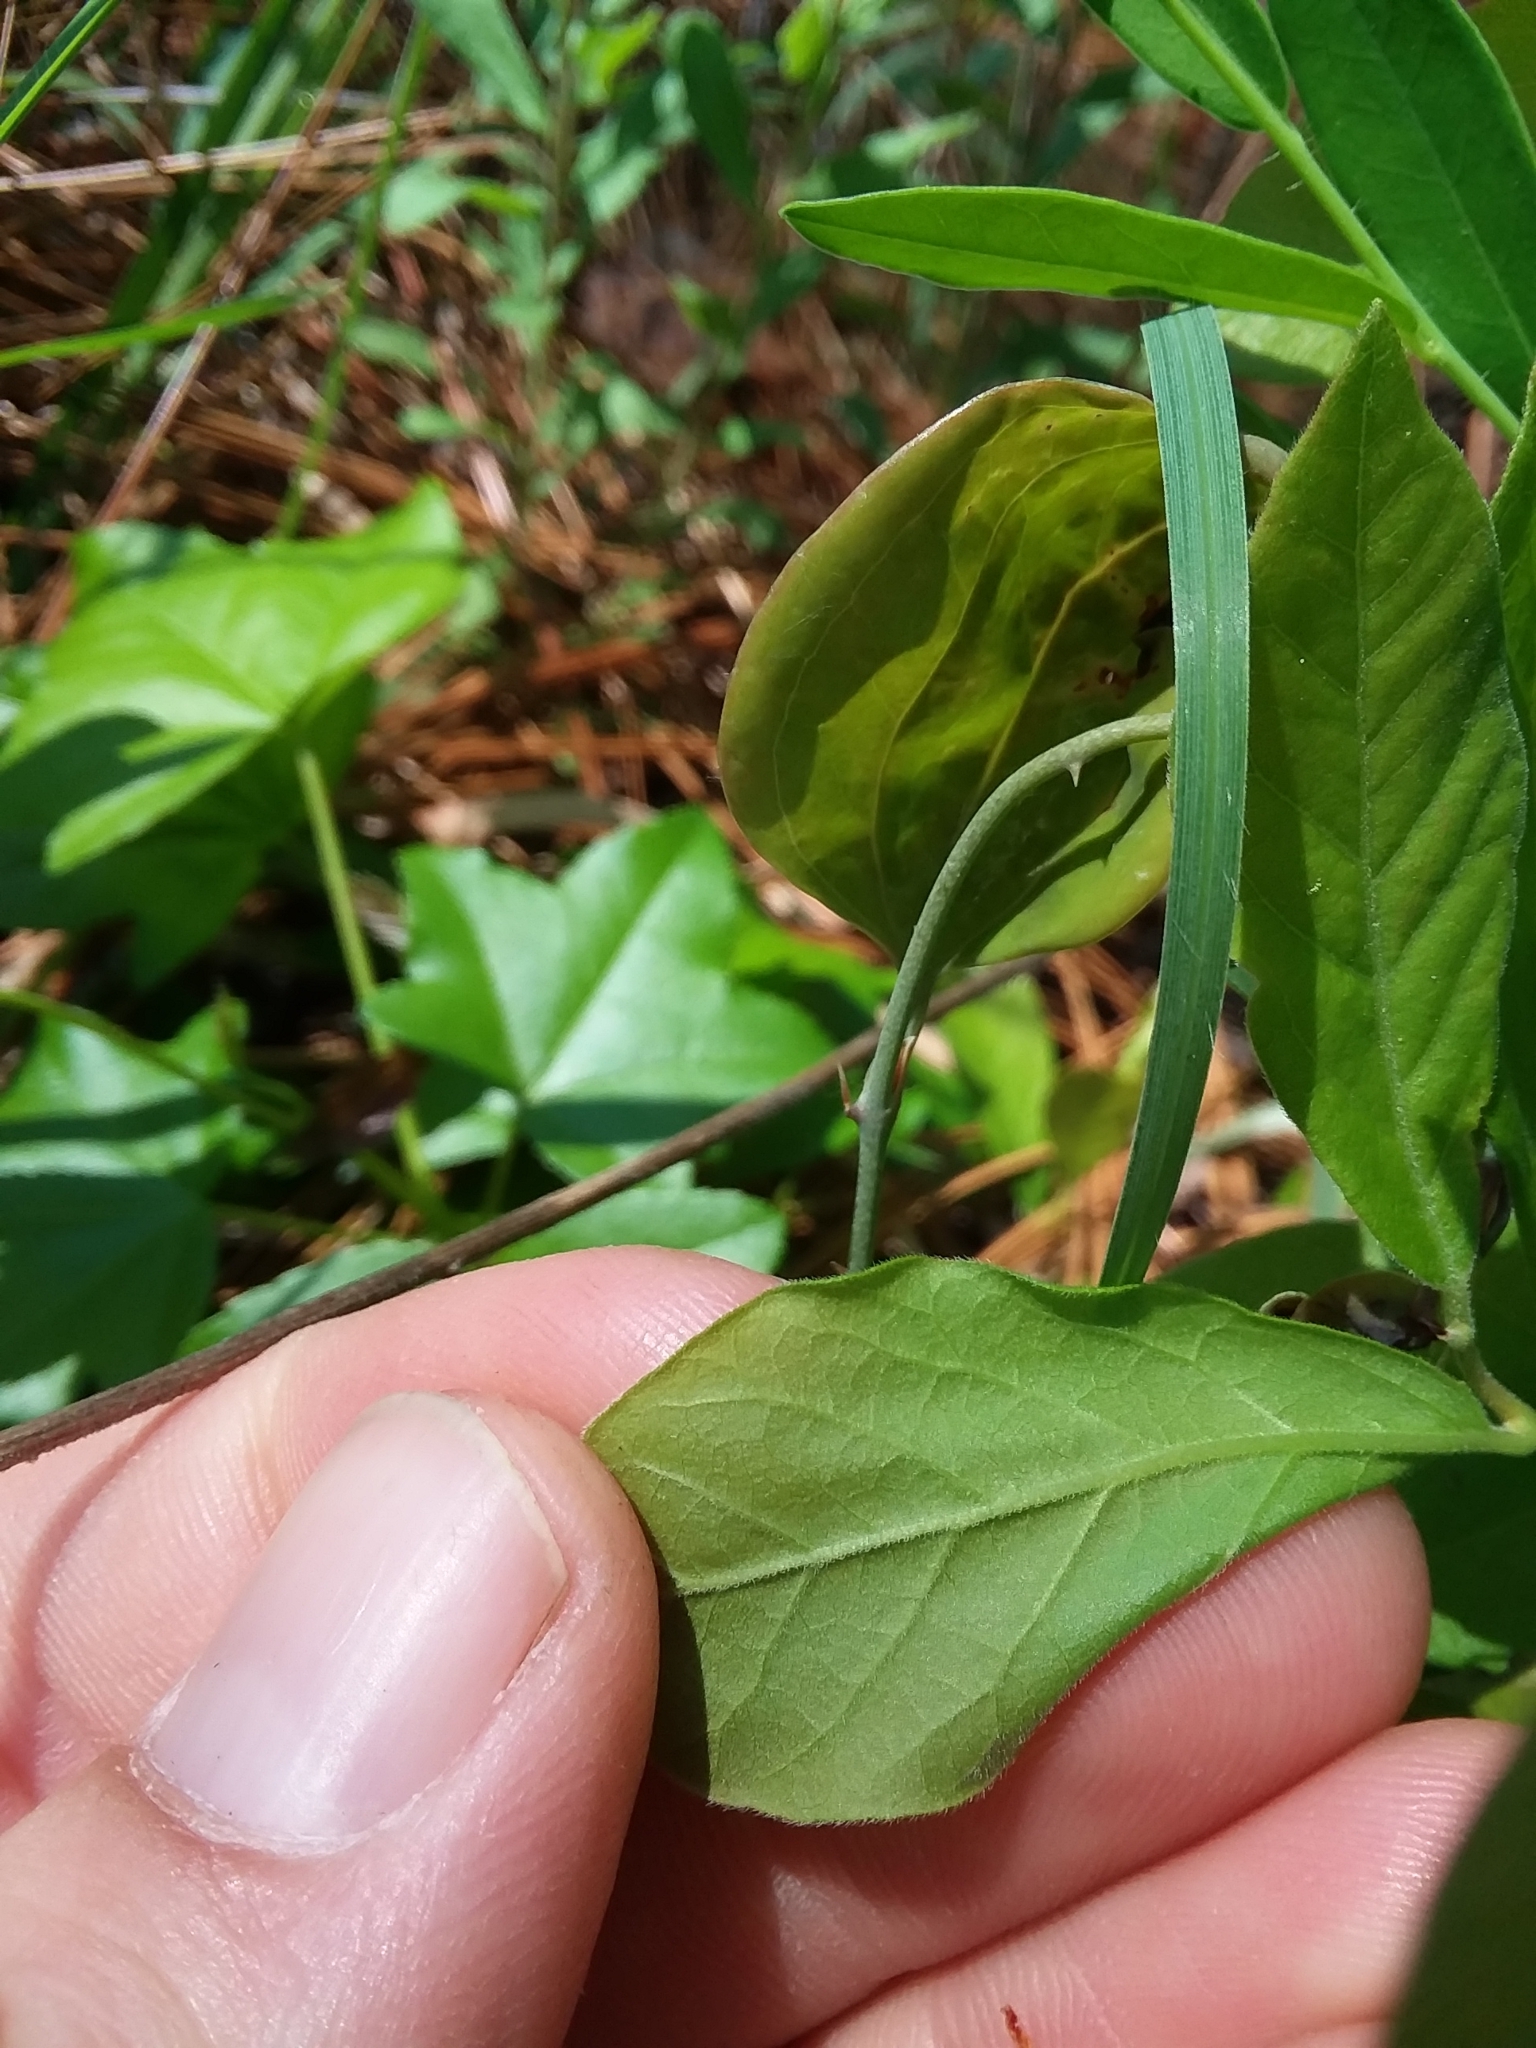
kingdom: Plantae
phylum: Tracheophyta
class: Magnoliopsida
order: Ericales
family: Ericaceae
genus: Vaccinium
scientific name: Vaccinium stamineum
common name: Deerberry
